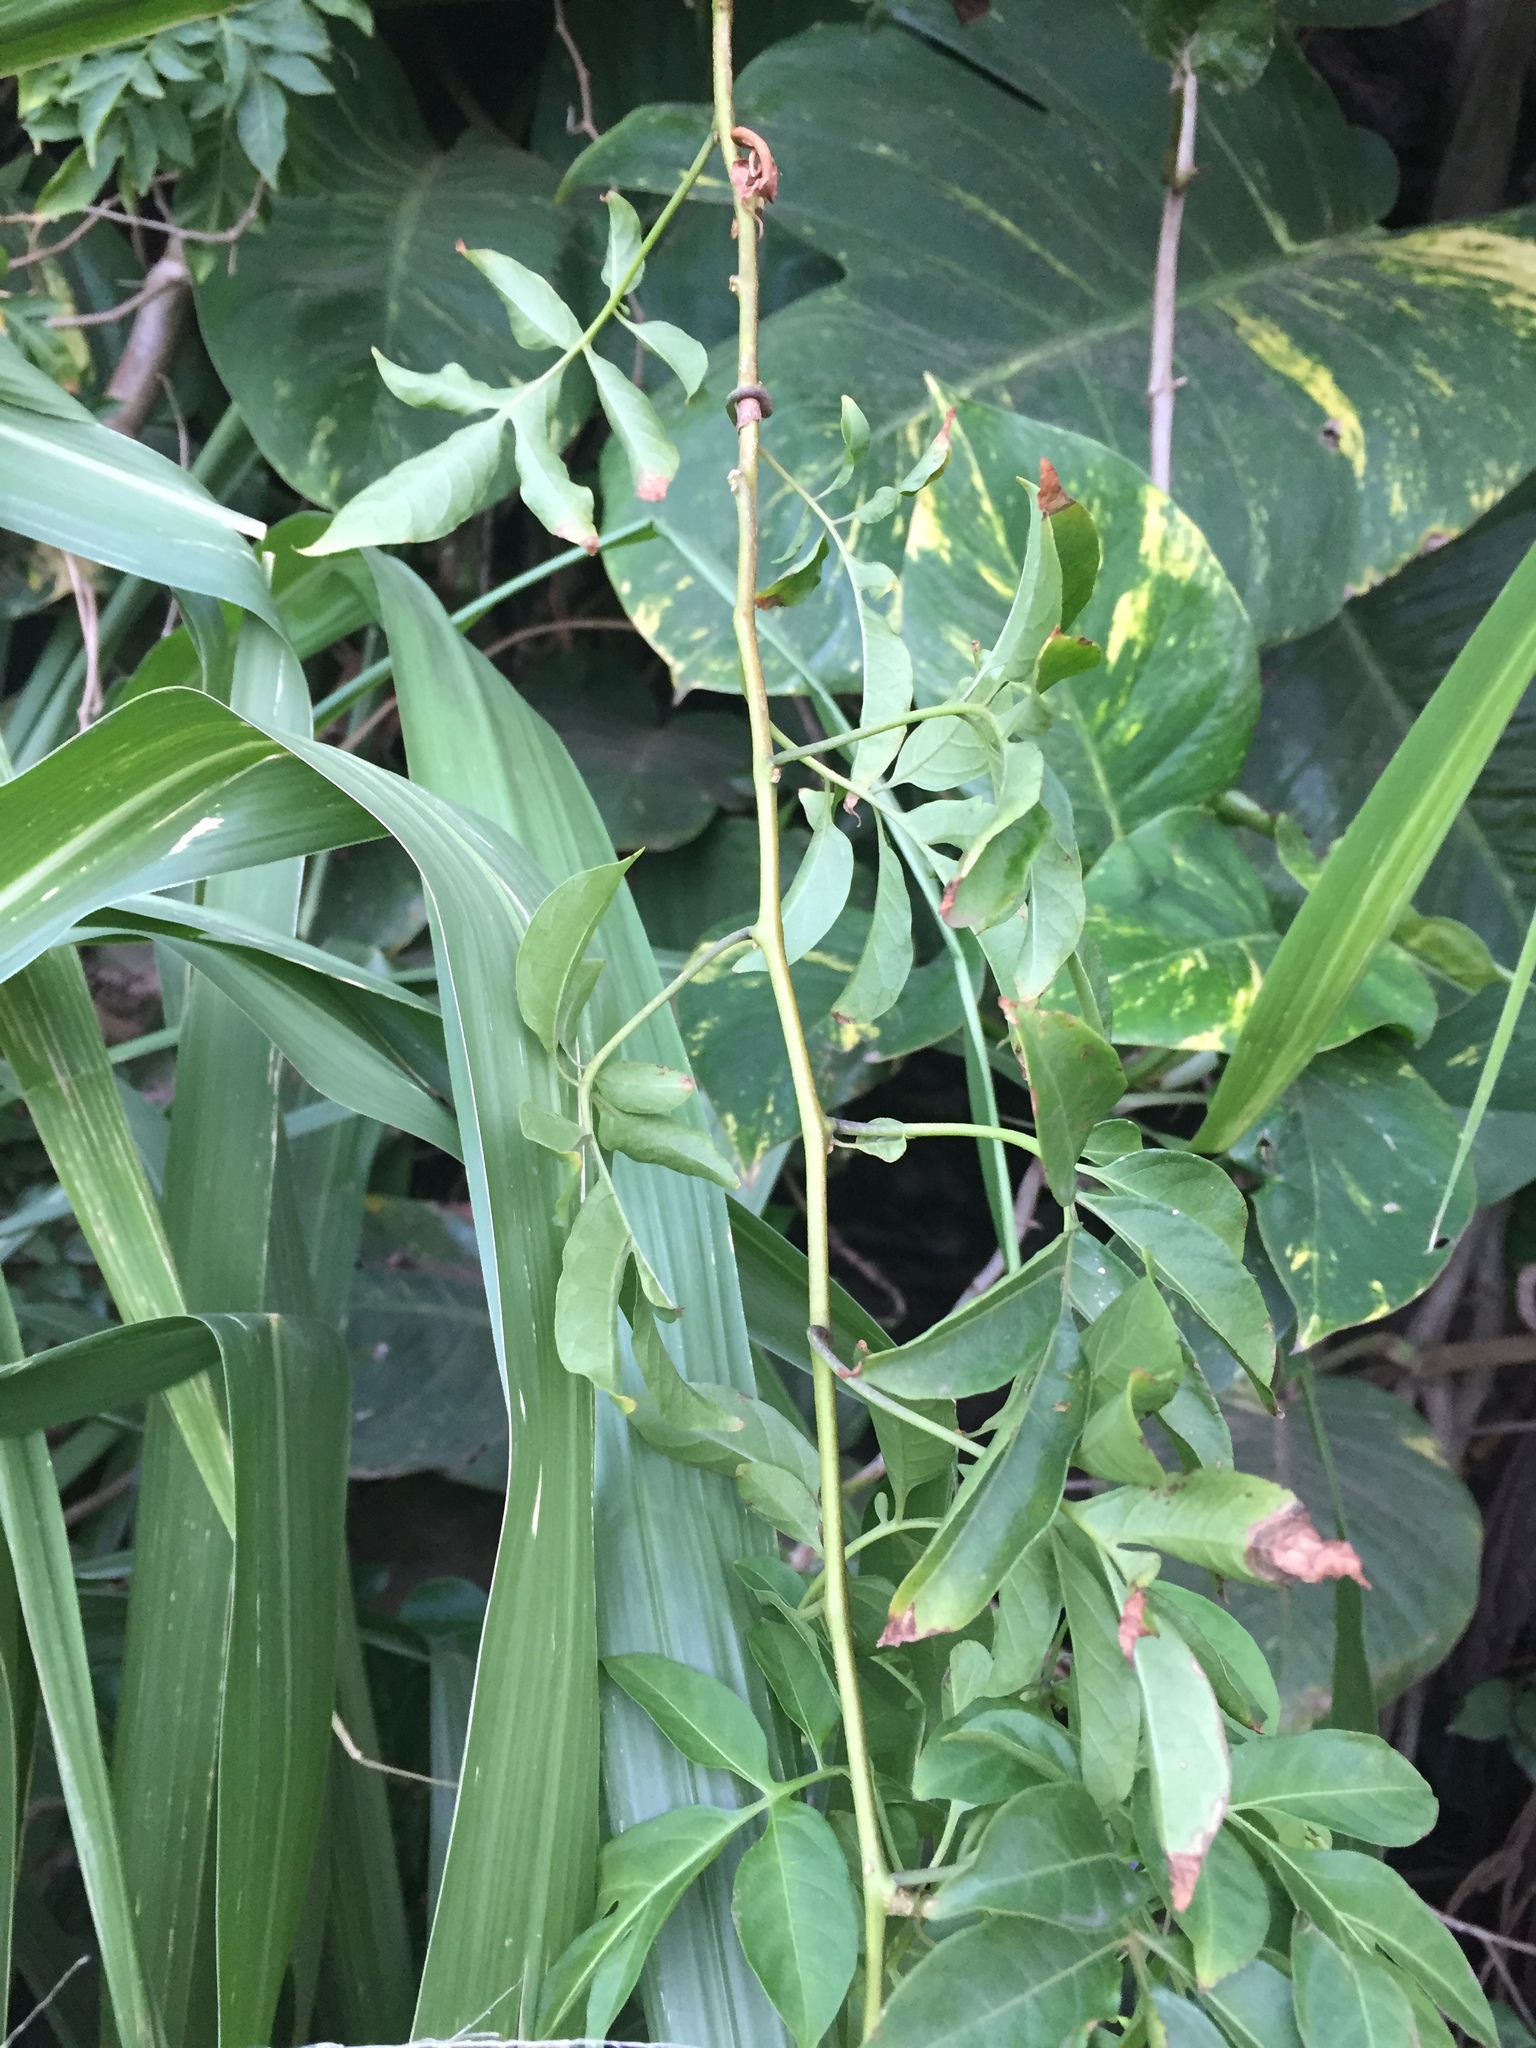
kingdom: Plantae
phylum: Tracheophyta
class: Magnoliopsida
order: Solanales
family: Solanaceae
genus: Solanum
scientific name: Solanum seaforthianum
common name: Brazilian nightshade
